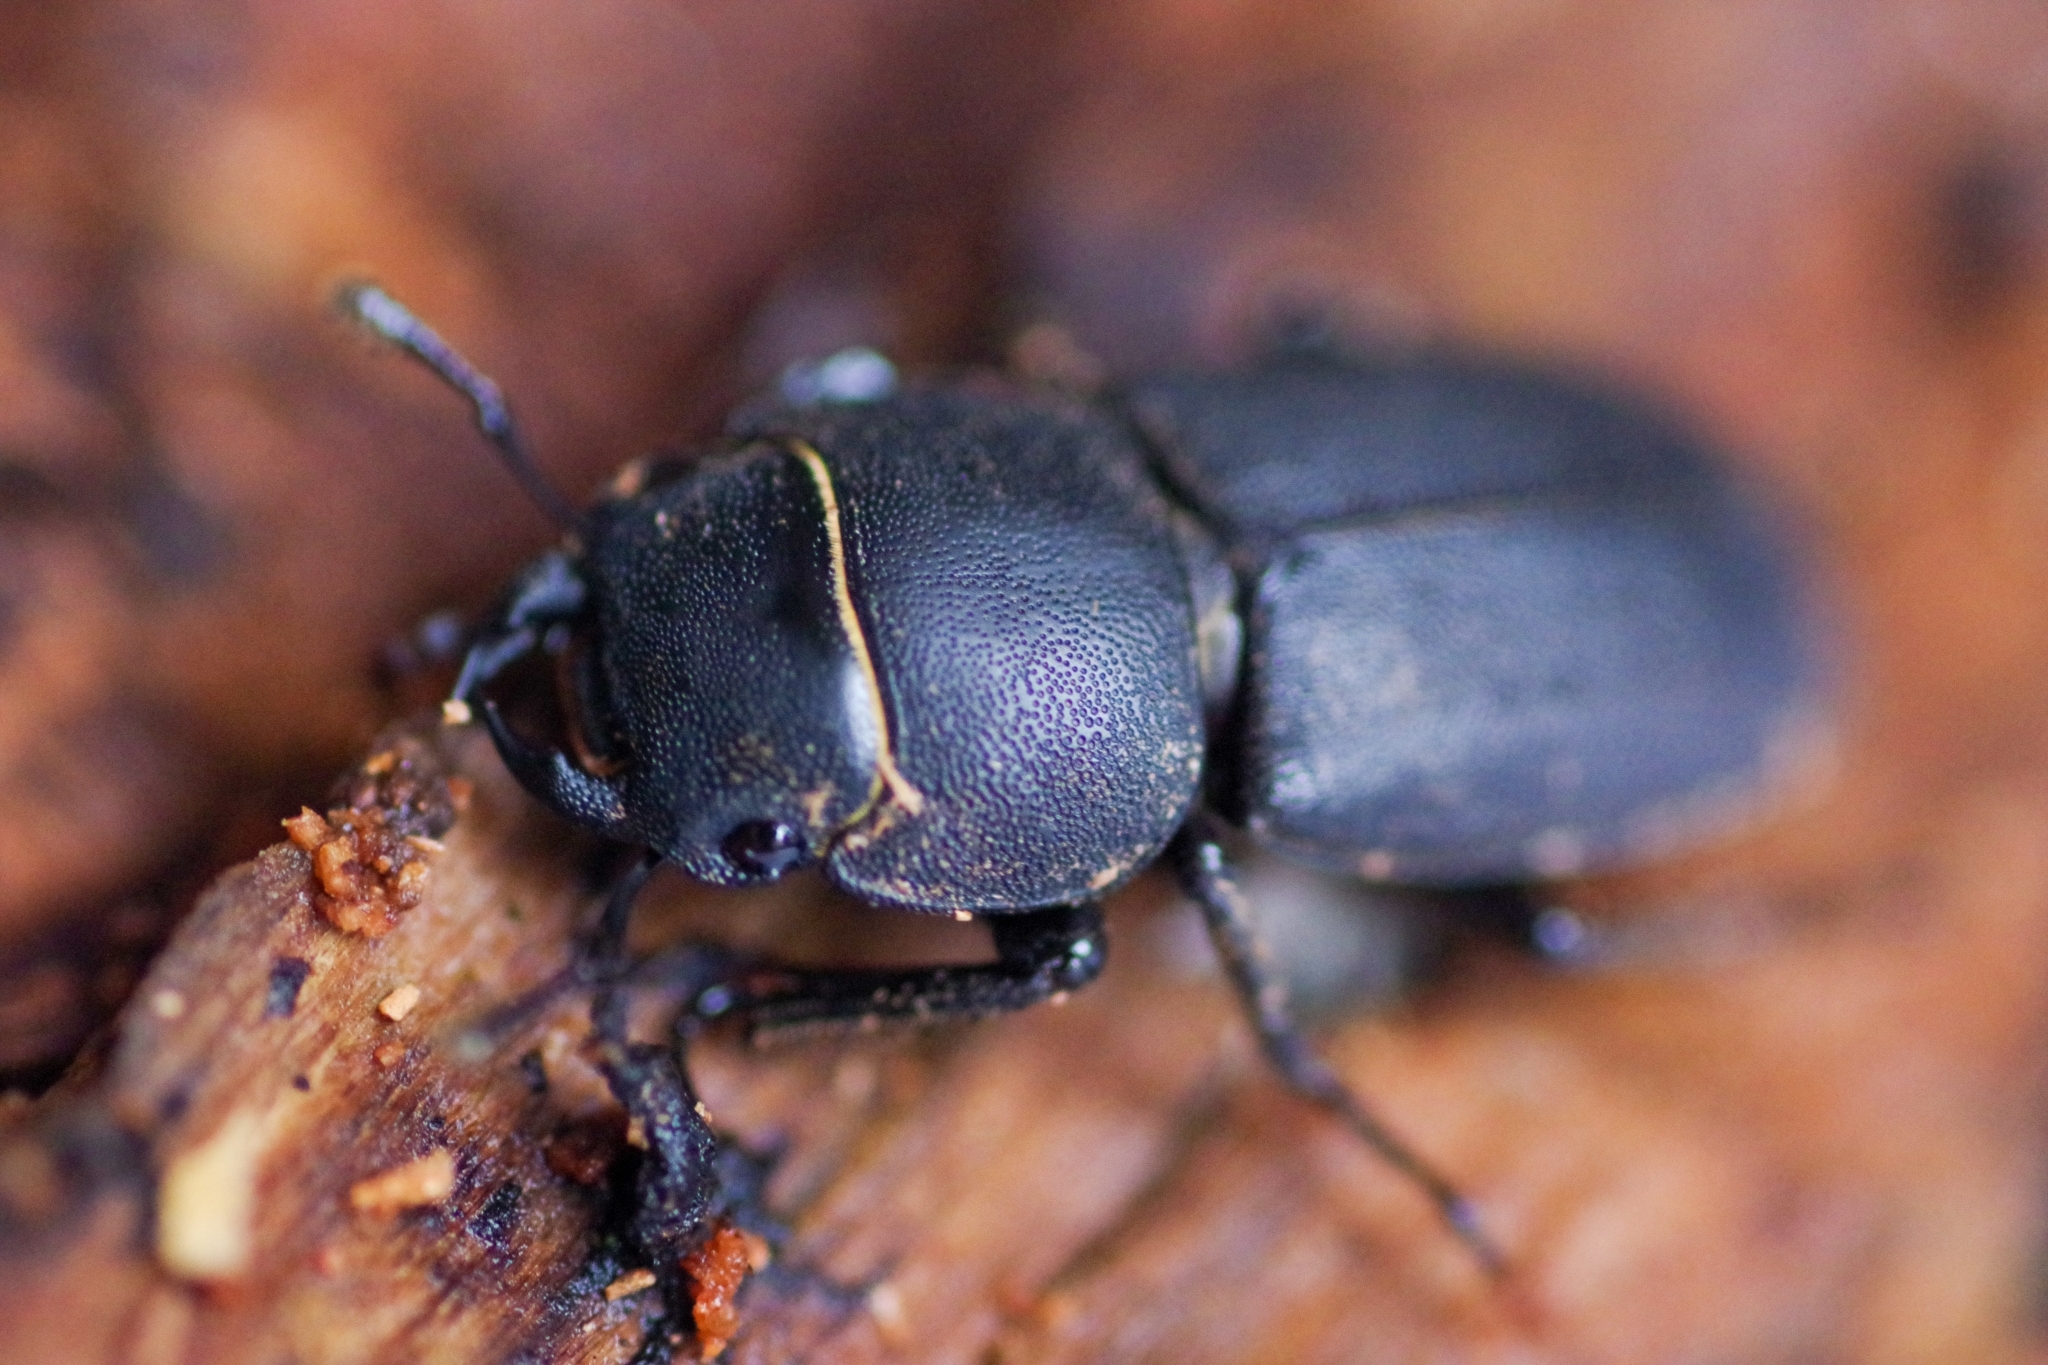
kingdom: Animalia
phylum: Arthropoda
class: Insecta
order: Coleoptera
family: Lucanidae
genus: Dorcus
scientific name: Dorcus parallelipipedus
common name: Lesser stag beetle
